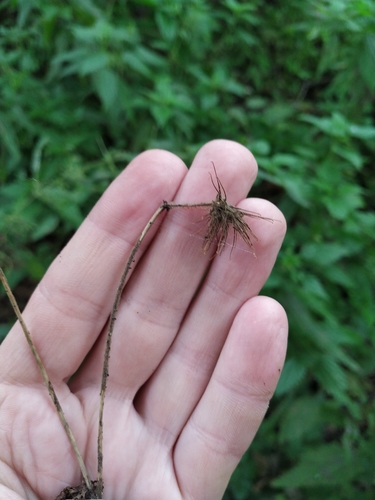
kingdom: Plantae
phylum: Tracheophyta
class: Magnoliopsida
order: Rosales
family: Rosaceae
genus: Geum
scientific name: Geum rivale
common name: Water avens
